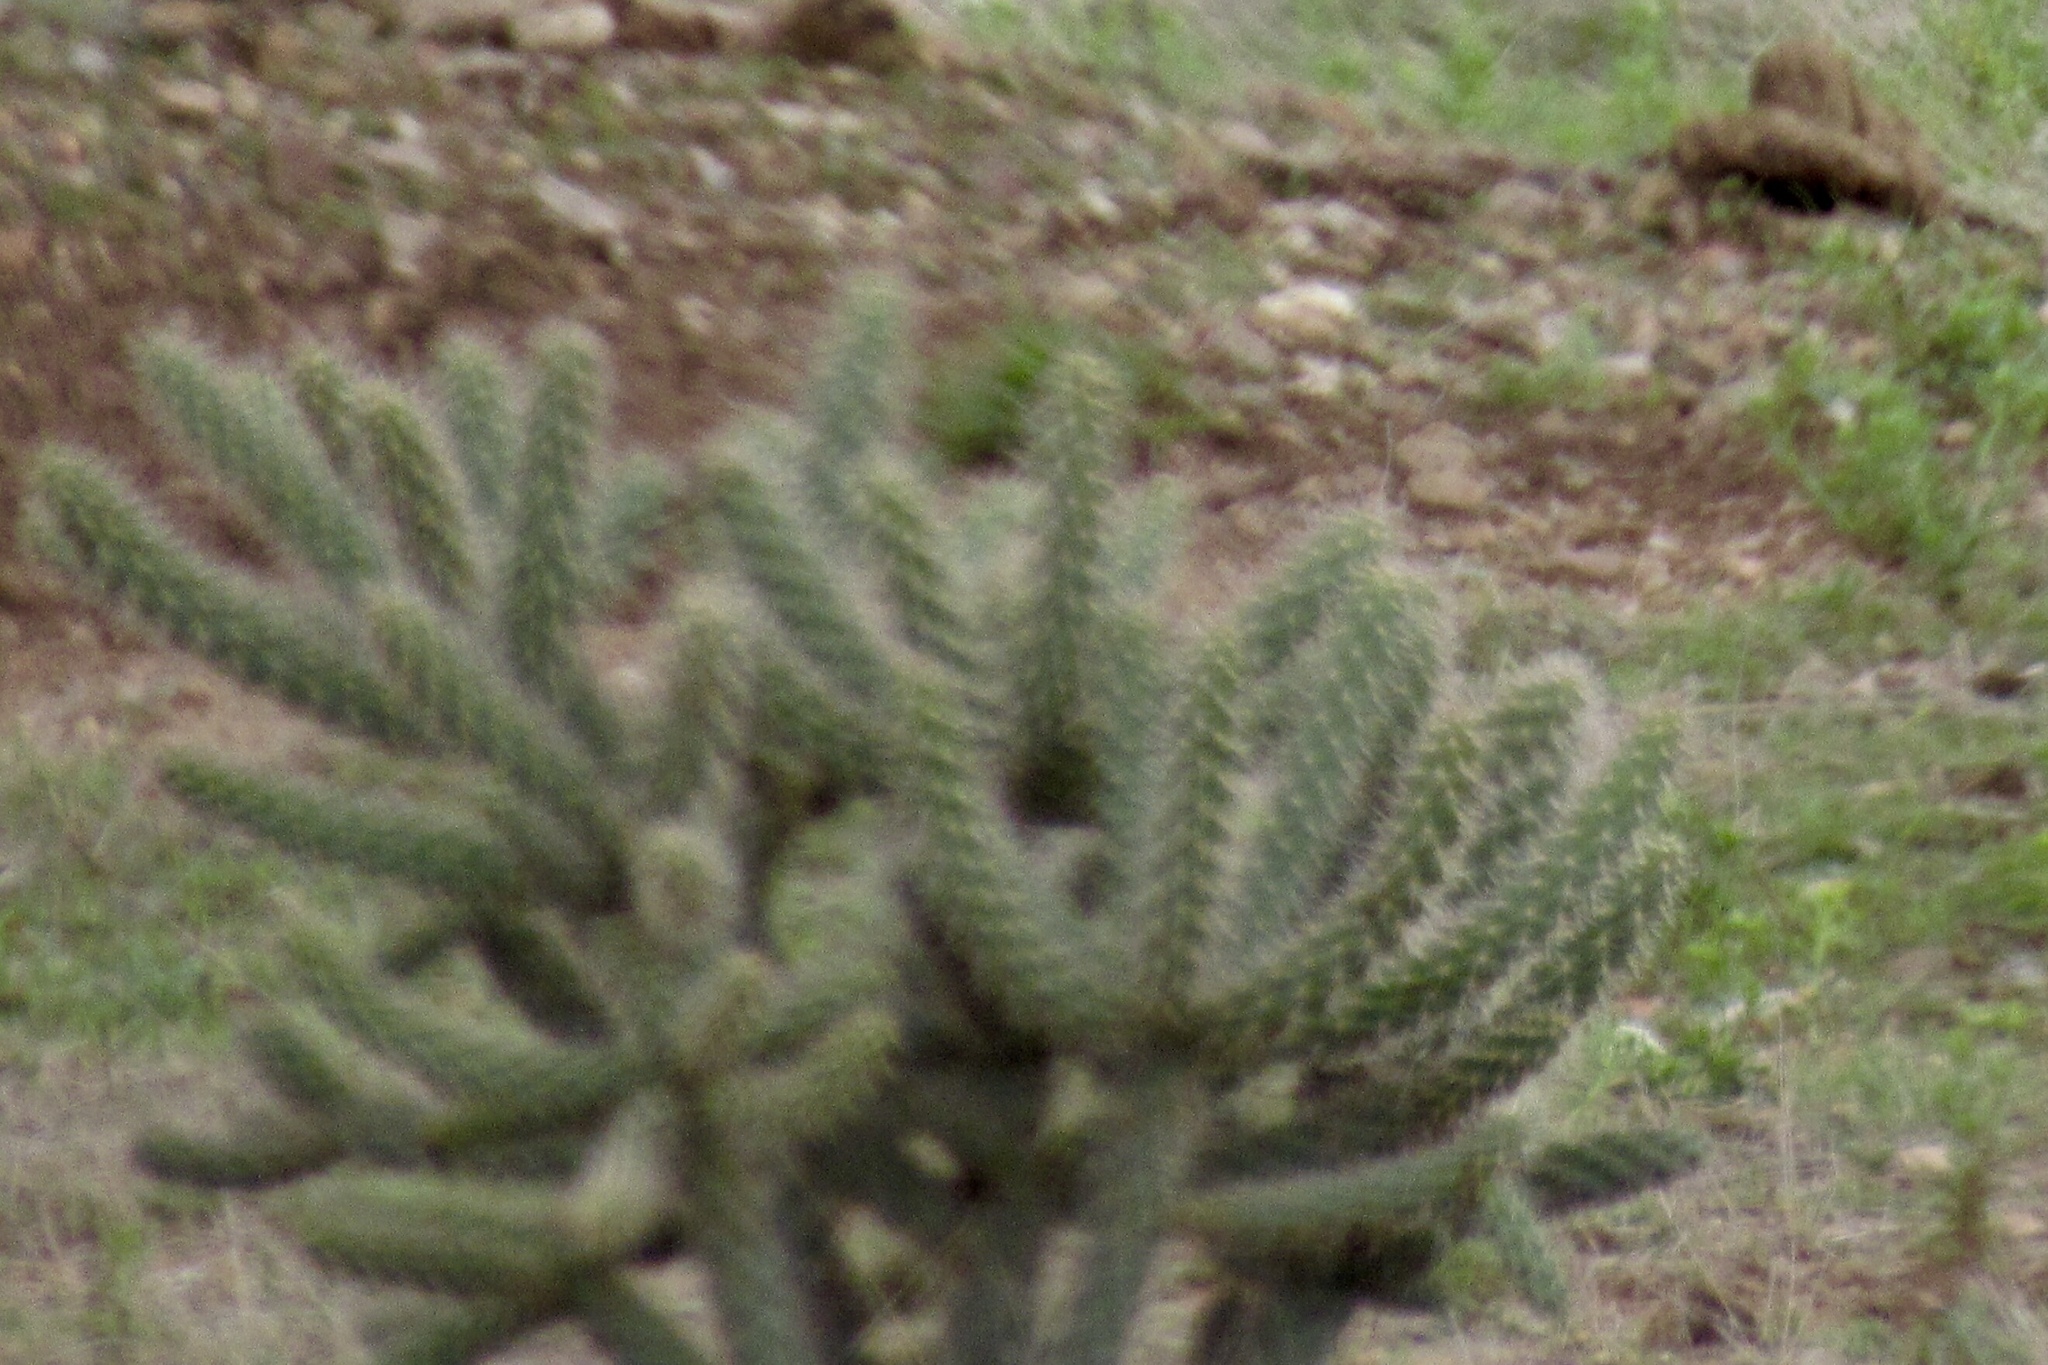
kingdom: Plantae
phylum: Tracheophyta
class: Magnoliopsida
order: Caryophyllales
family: Cactaceae
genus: Cylindropuntia
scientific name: Cylindropuntia imbricata
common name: Candelabrum cactus
